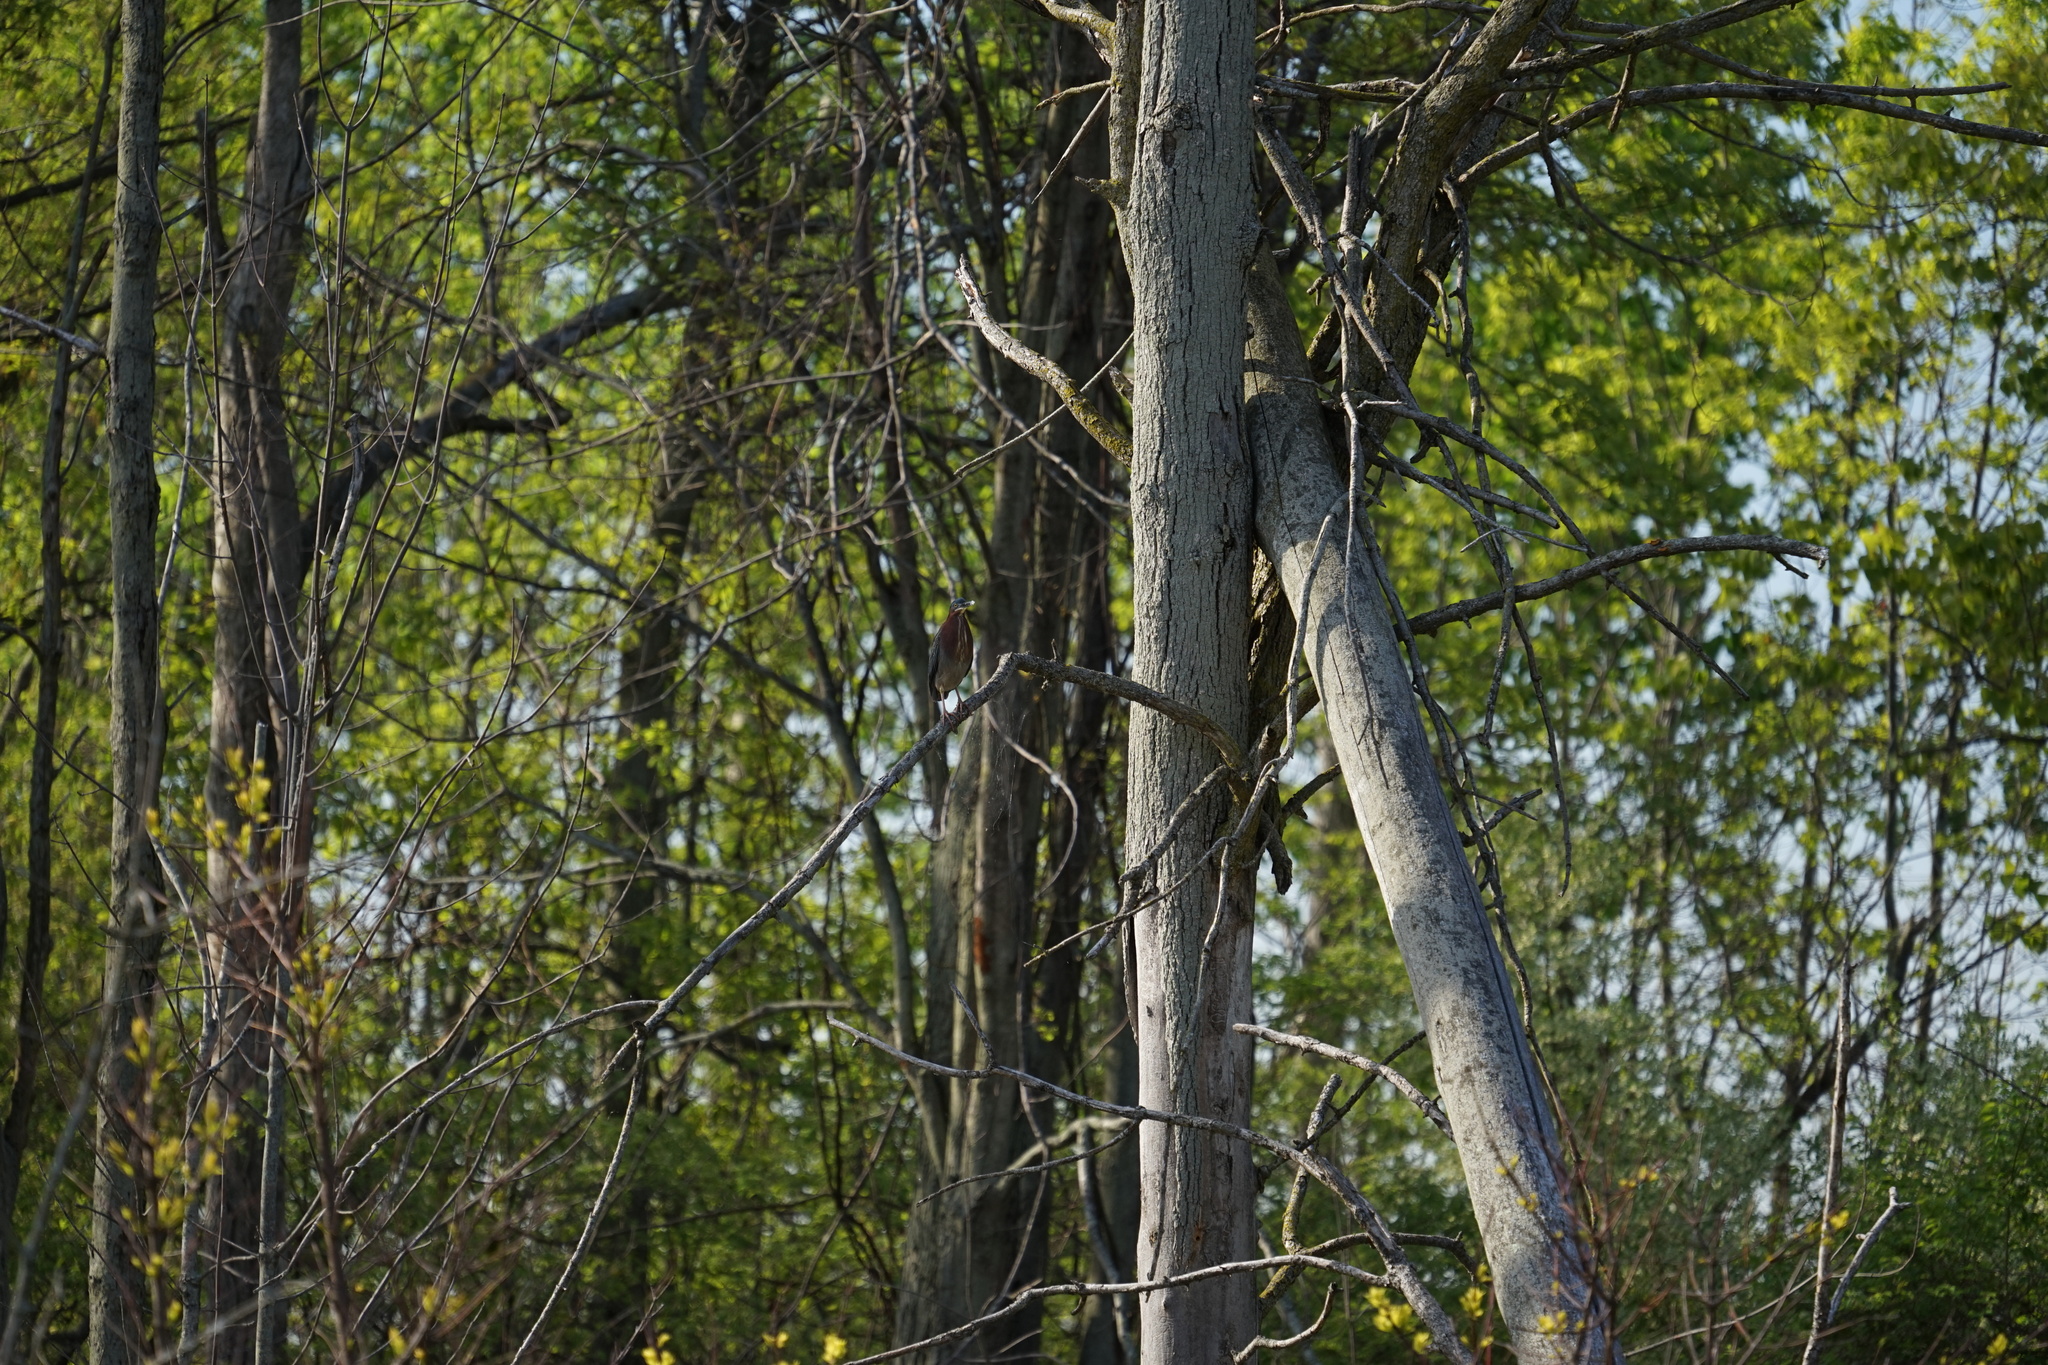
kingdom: Animalia
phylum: Chordata
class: Aves
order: Pelecaniformes
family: Ardeidae
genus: Butorides
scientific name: Butorides virescens
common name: Green heron
